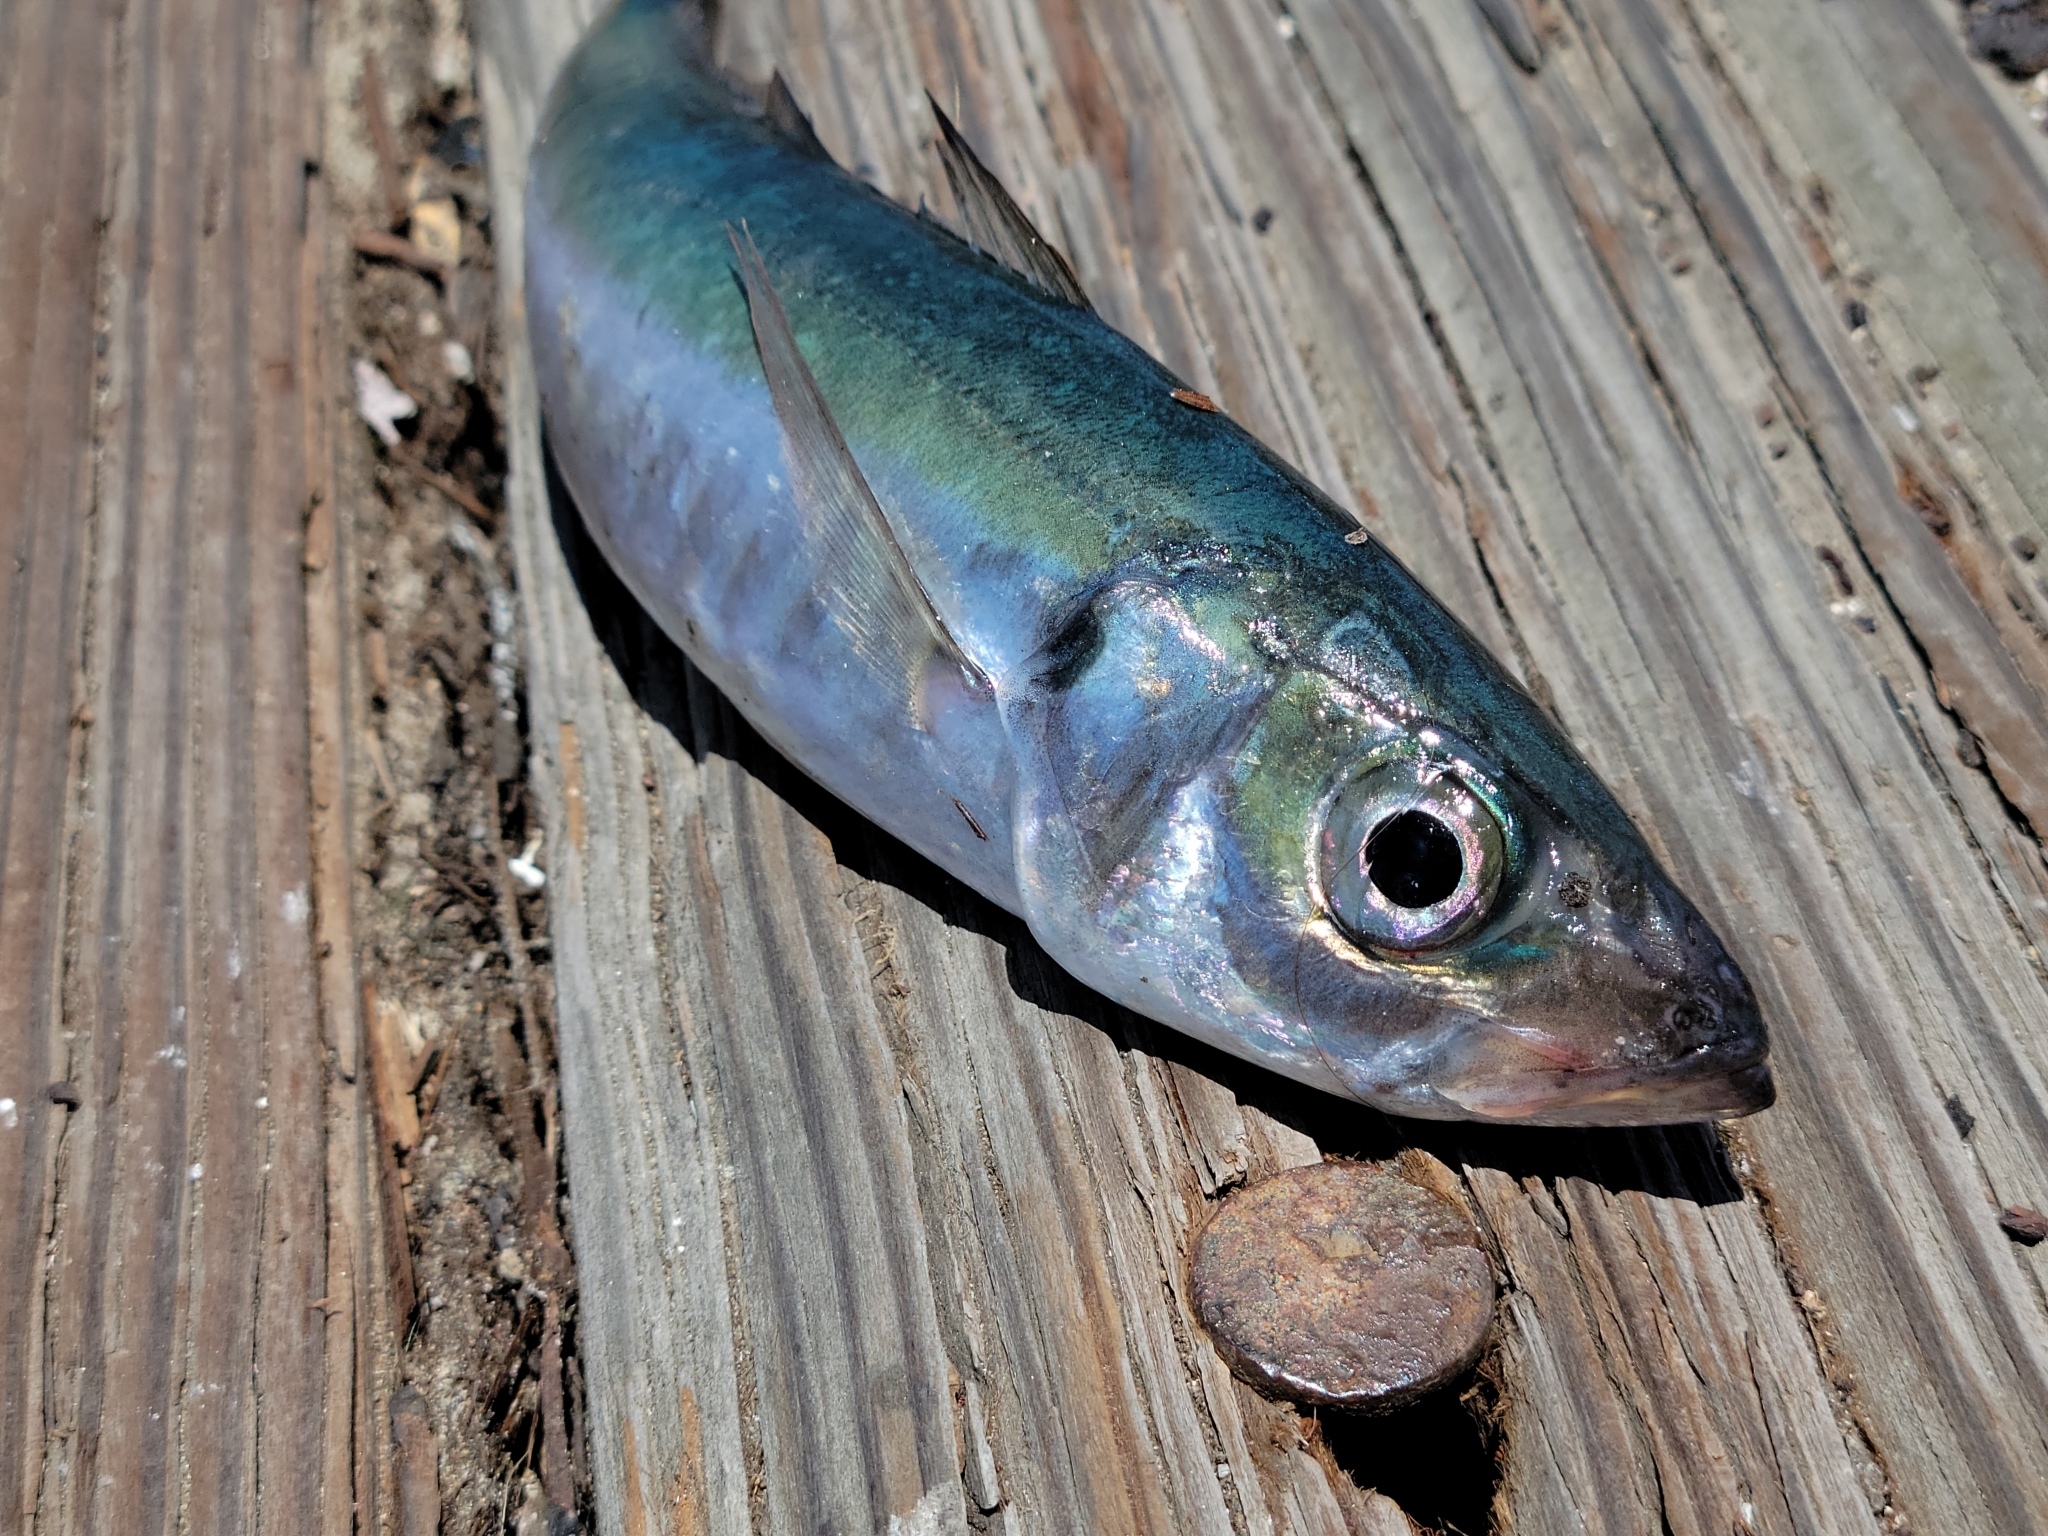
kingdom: Animalia
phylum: Chordata
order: Perciformes
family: Carangidae
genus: Trachurus
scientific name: Trachurus symmetricus
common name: Jack mackerel
